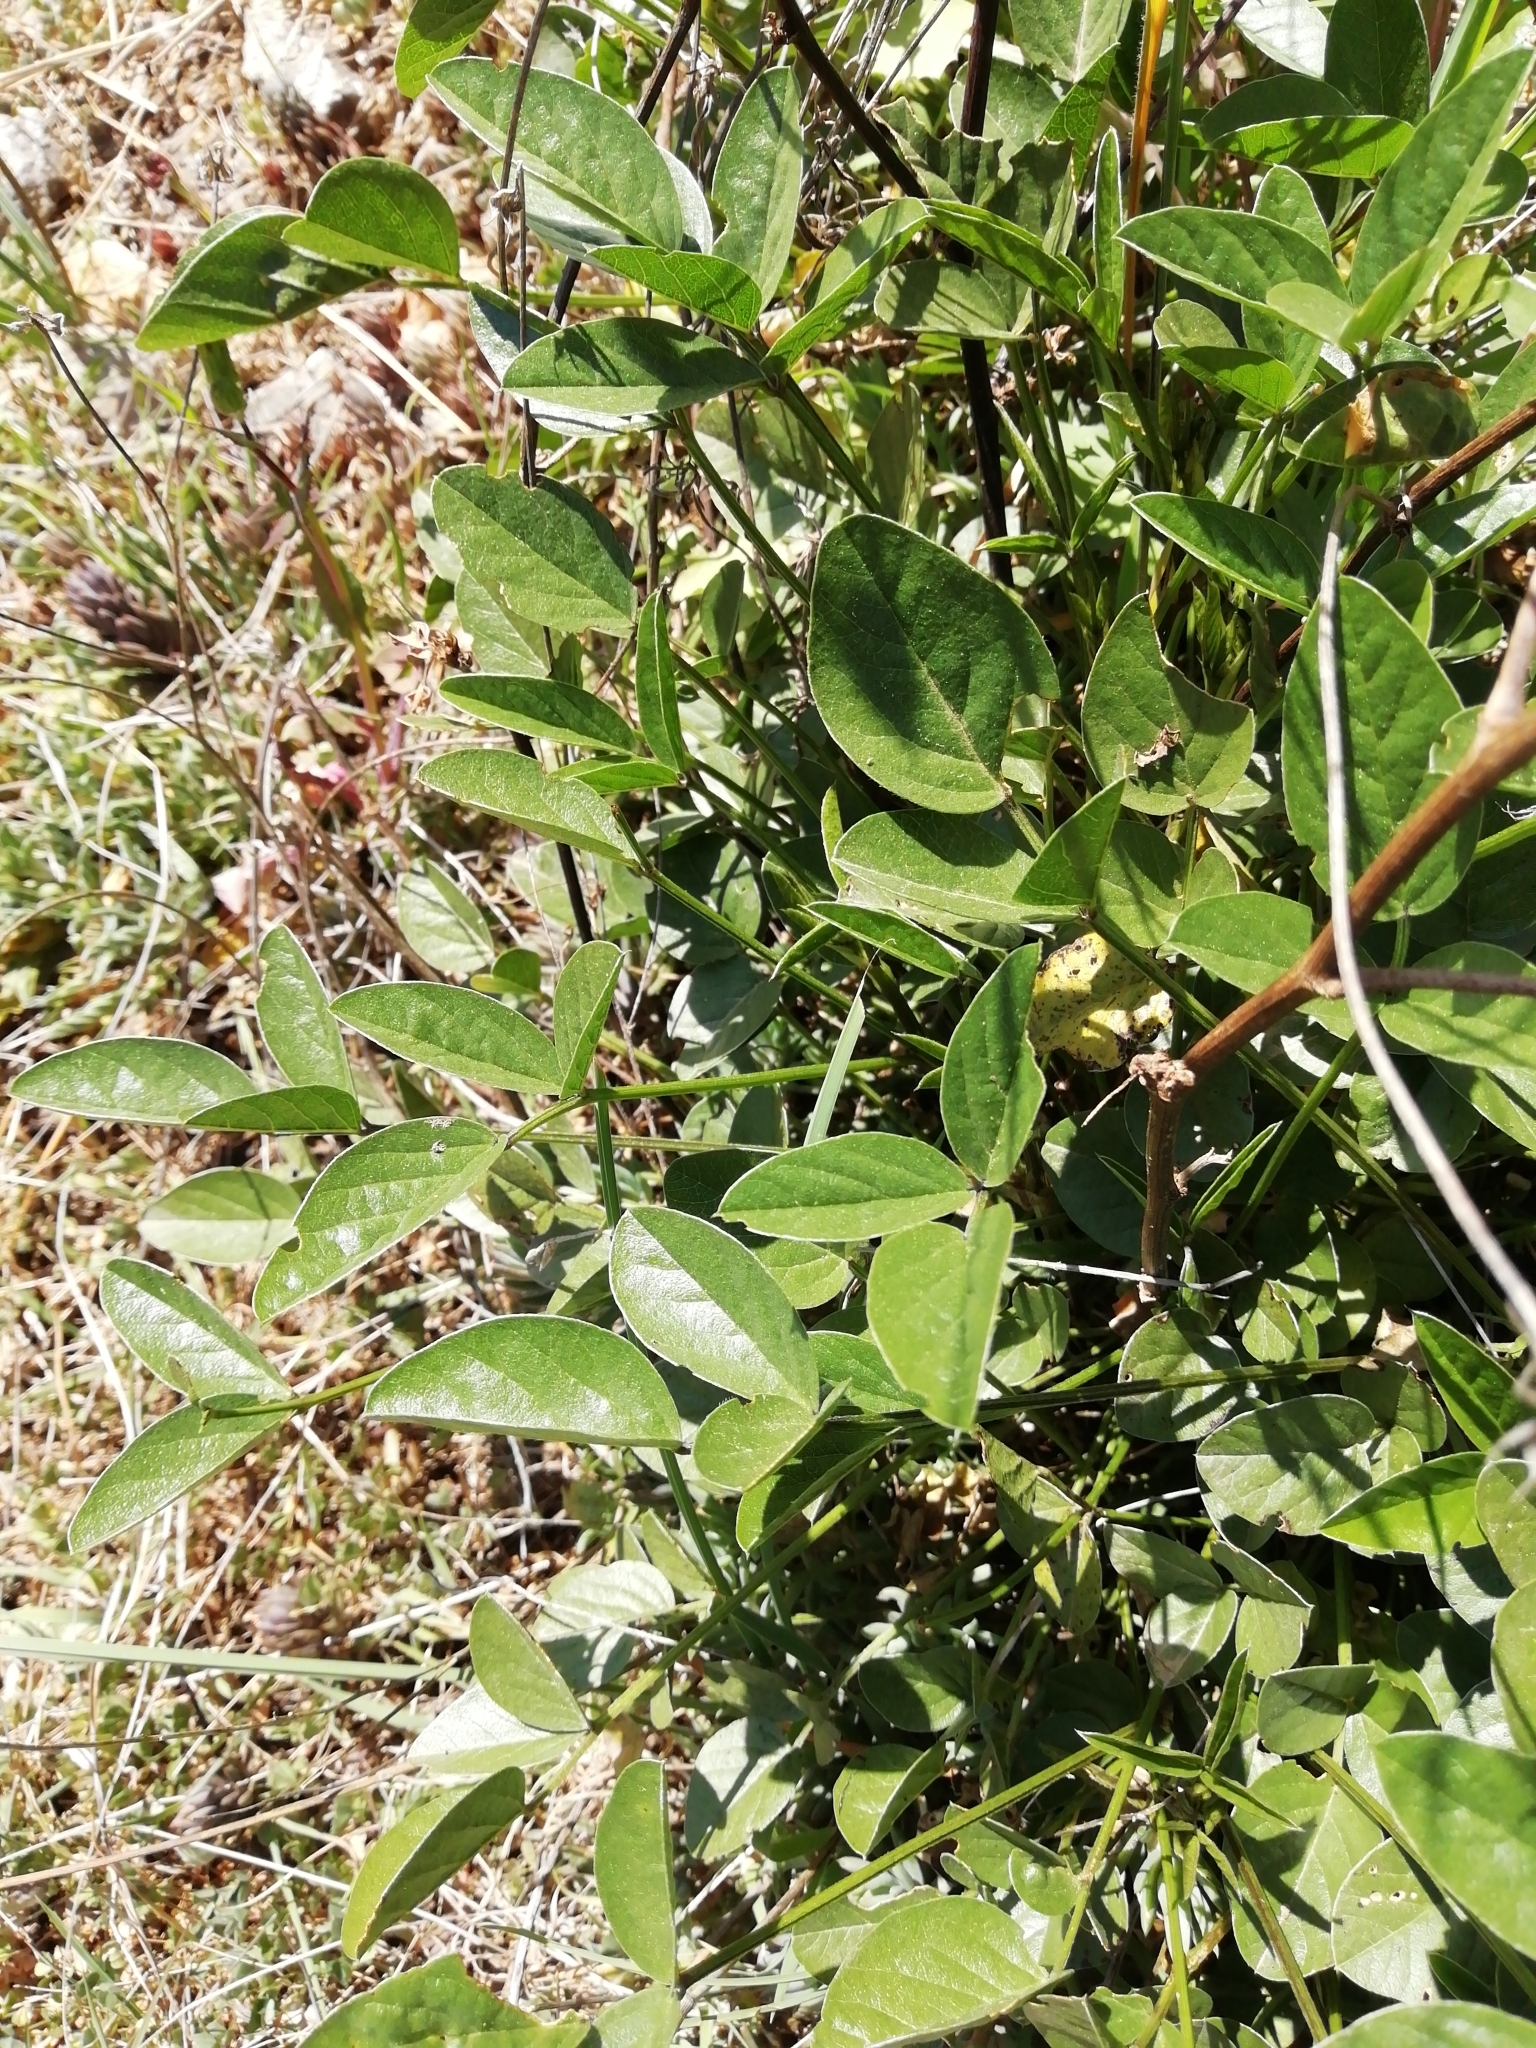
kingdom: Plantae
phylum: Tracheophyta
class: Magnoliopsida
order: Fabales
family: Fabaceae
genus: Bituminaria
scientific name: Bituminaria bituminosa
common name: Arabian pea
